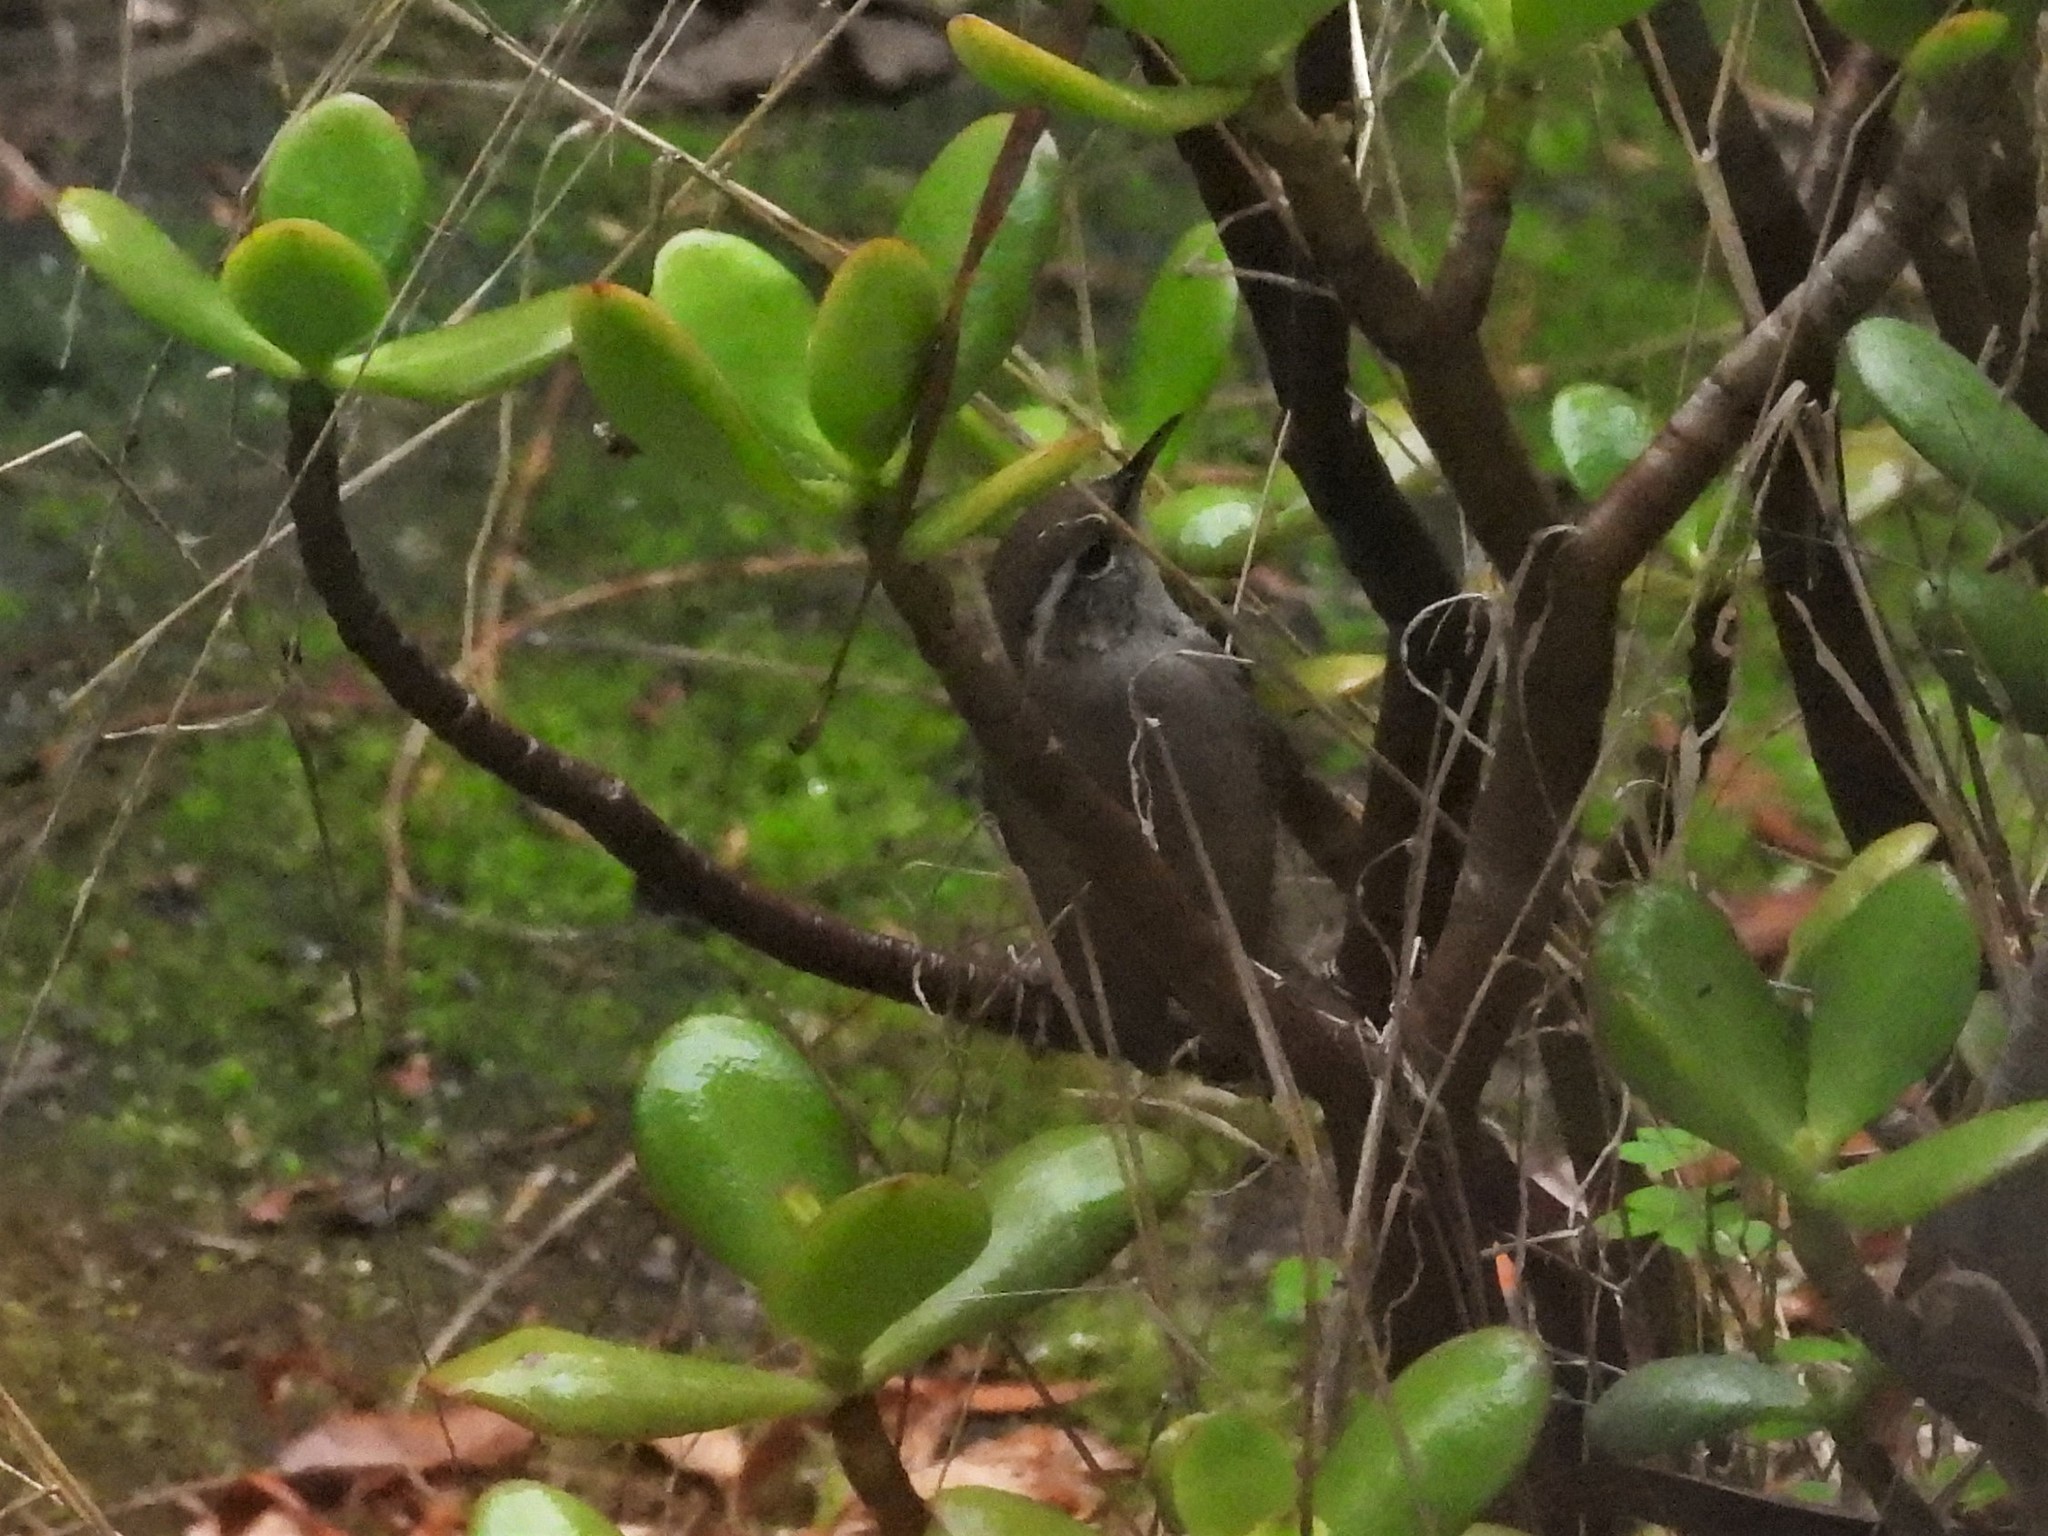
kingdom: Animalia
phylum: Chordata
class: Aves
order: Passeriformes
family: Troglodytidae
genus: Thryomanes
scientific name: Thryomanes bewickii
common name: Bewick's wren
